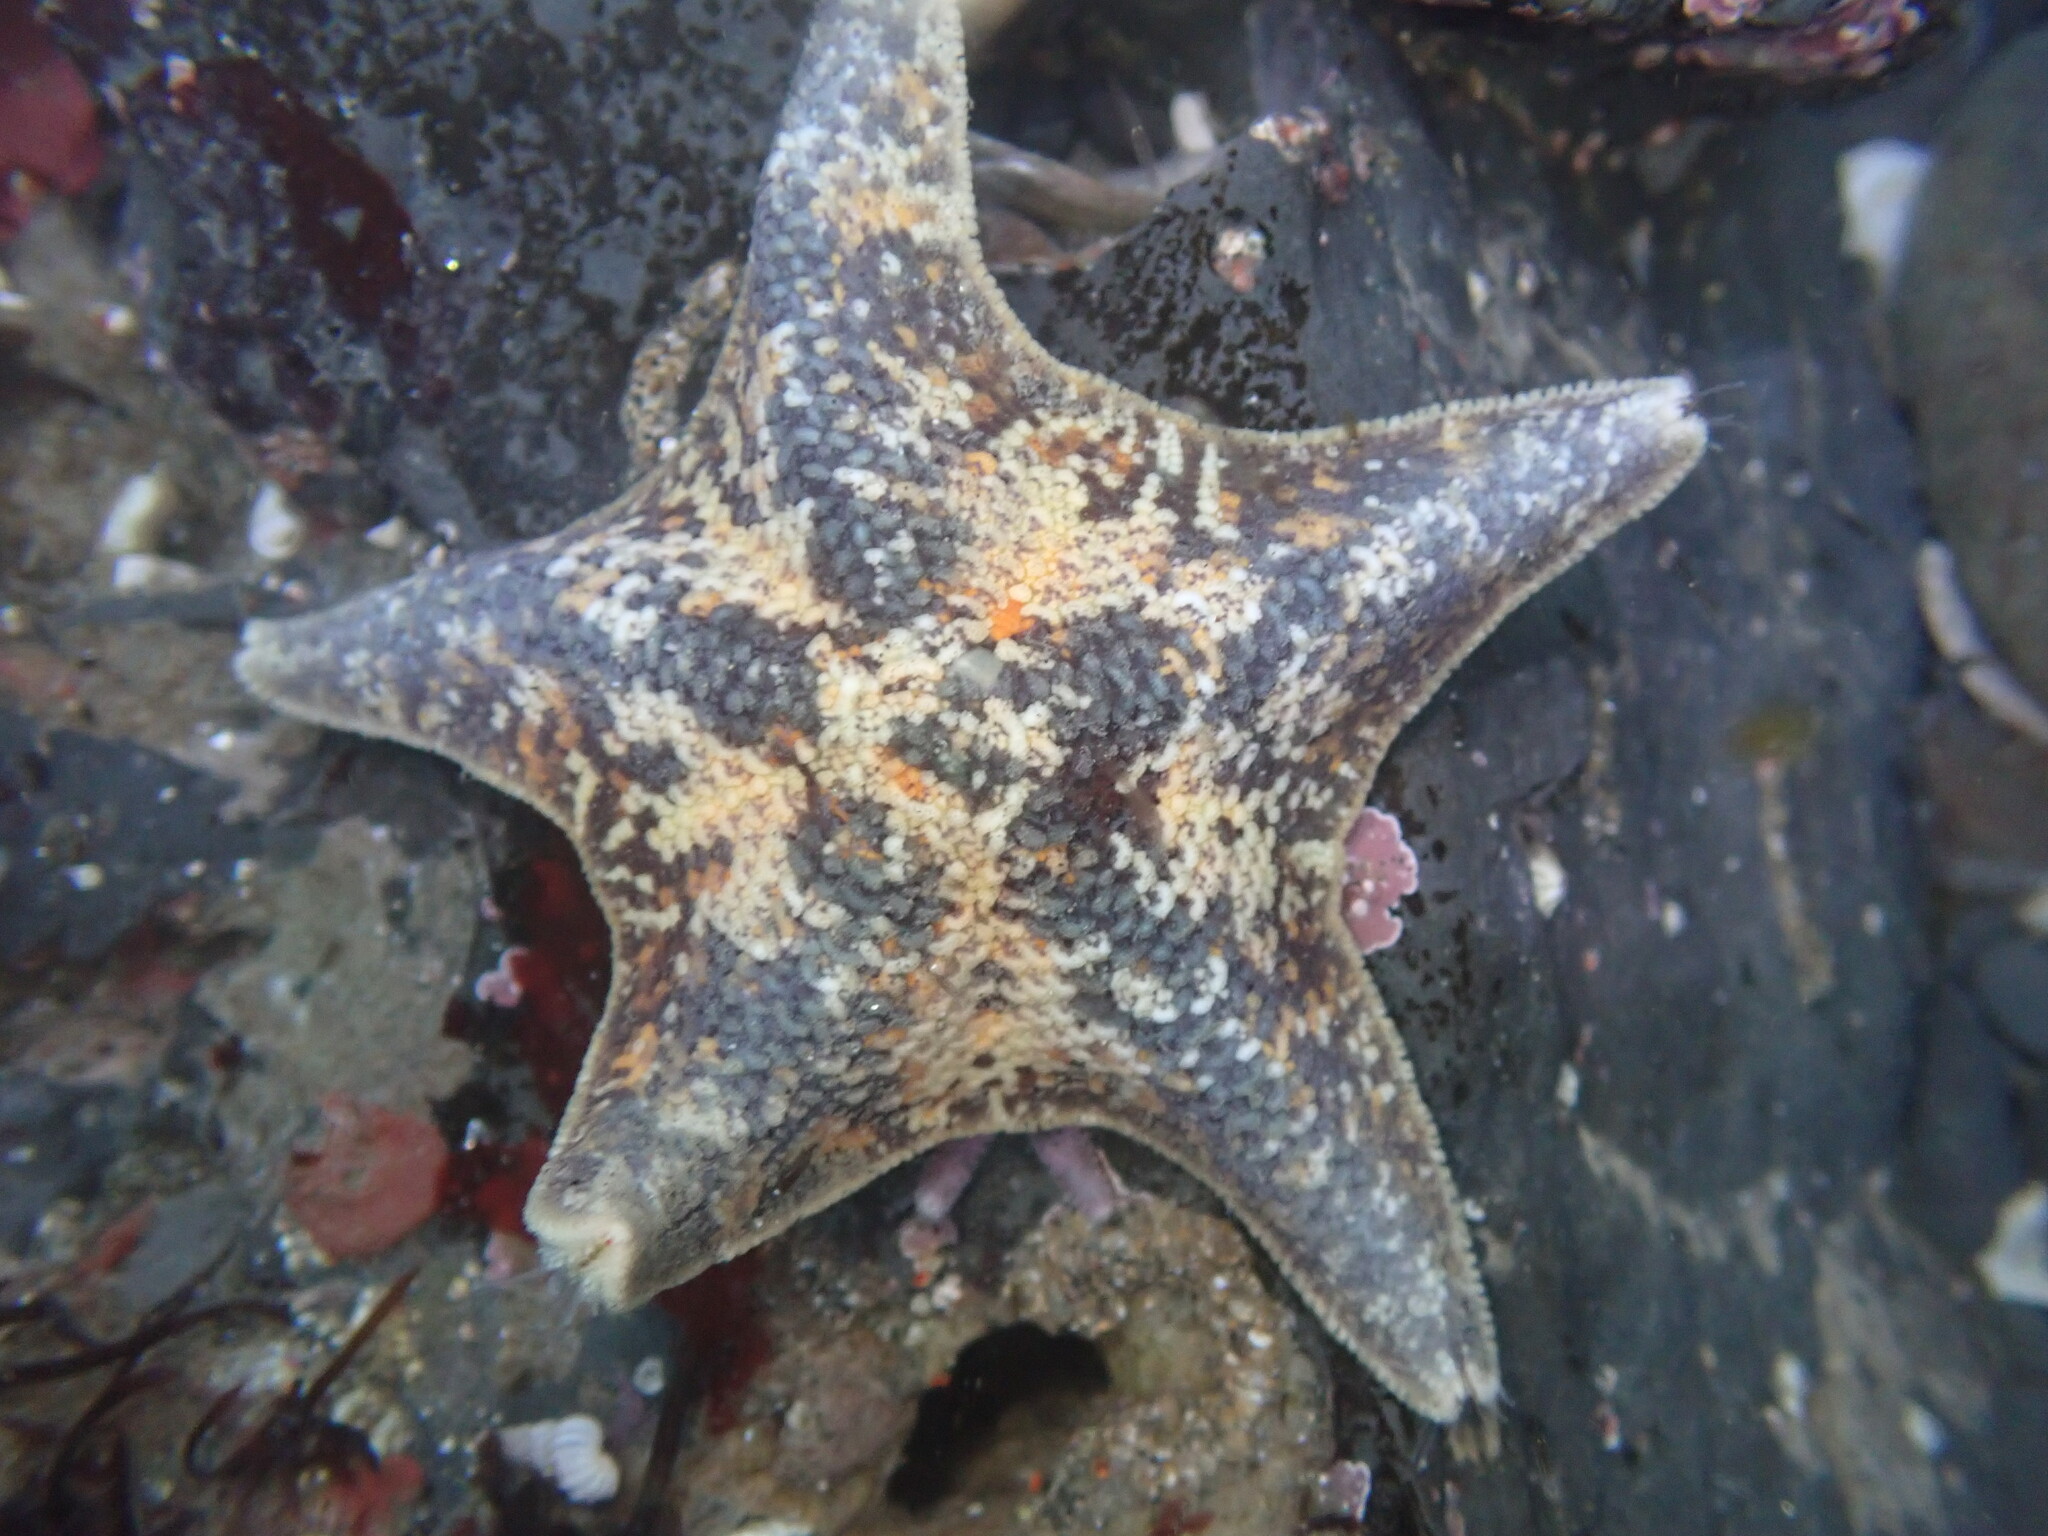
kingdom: Animalia
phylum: Echinodermata
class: Asteroidea
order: Valvatida
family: Asterinidae
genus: Patiria
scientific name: Patiria miniata
